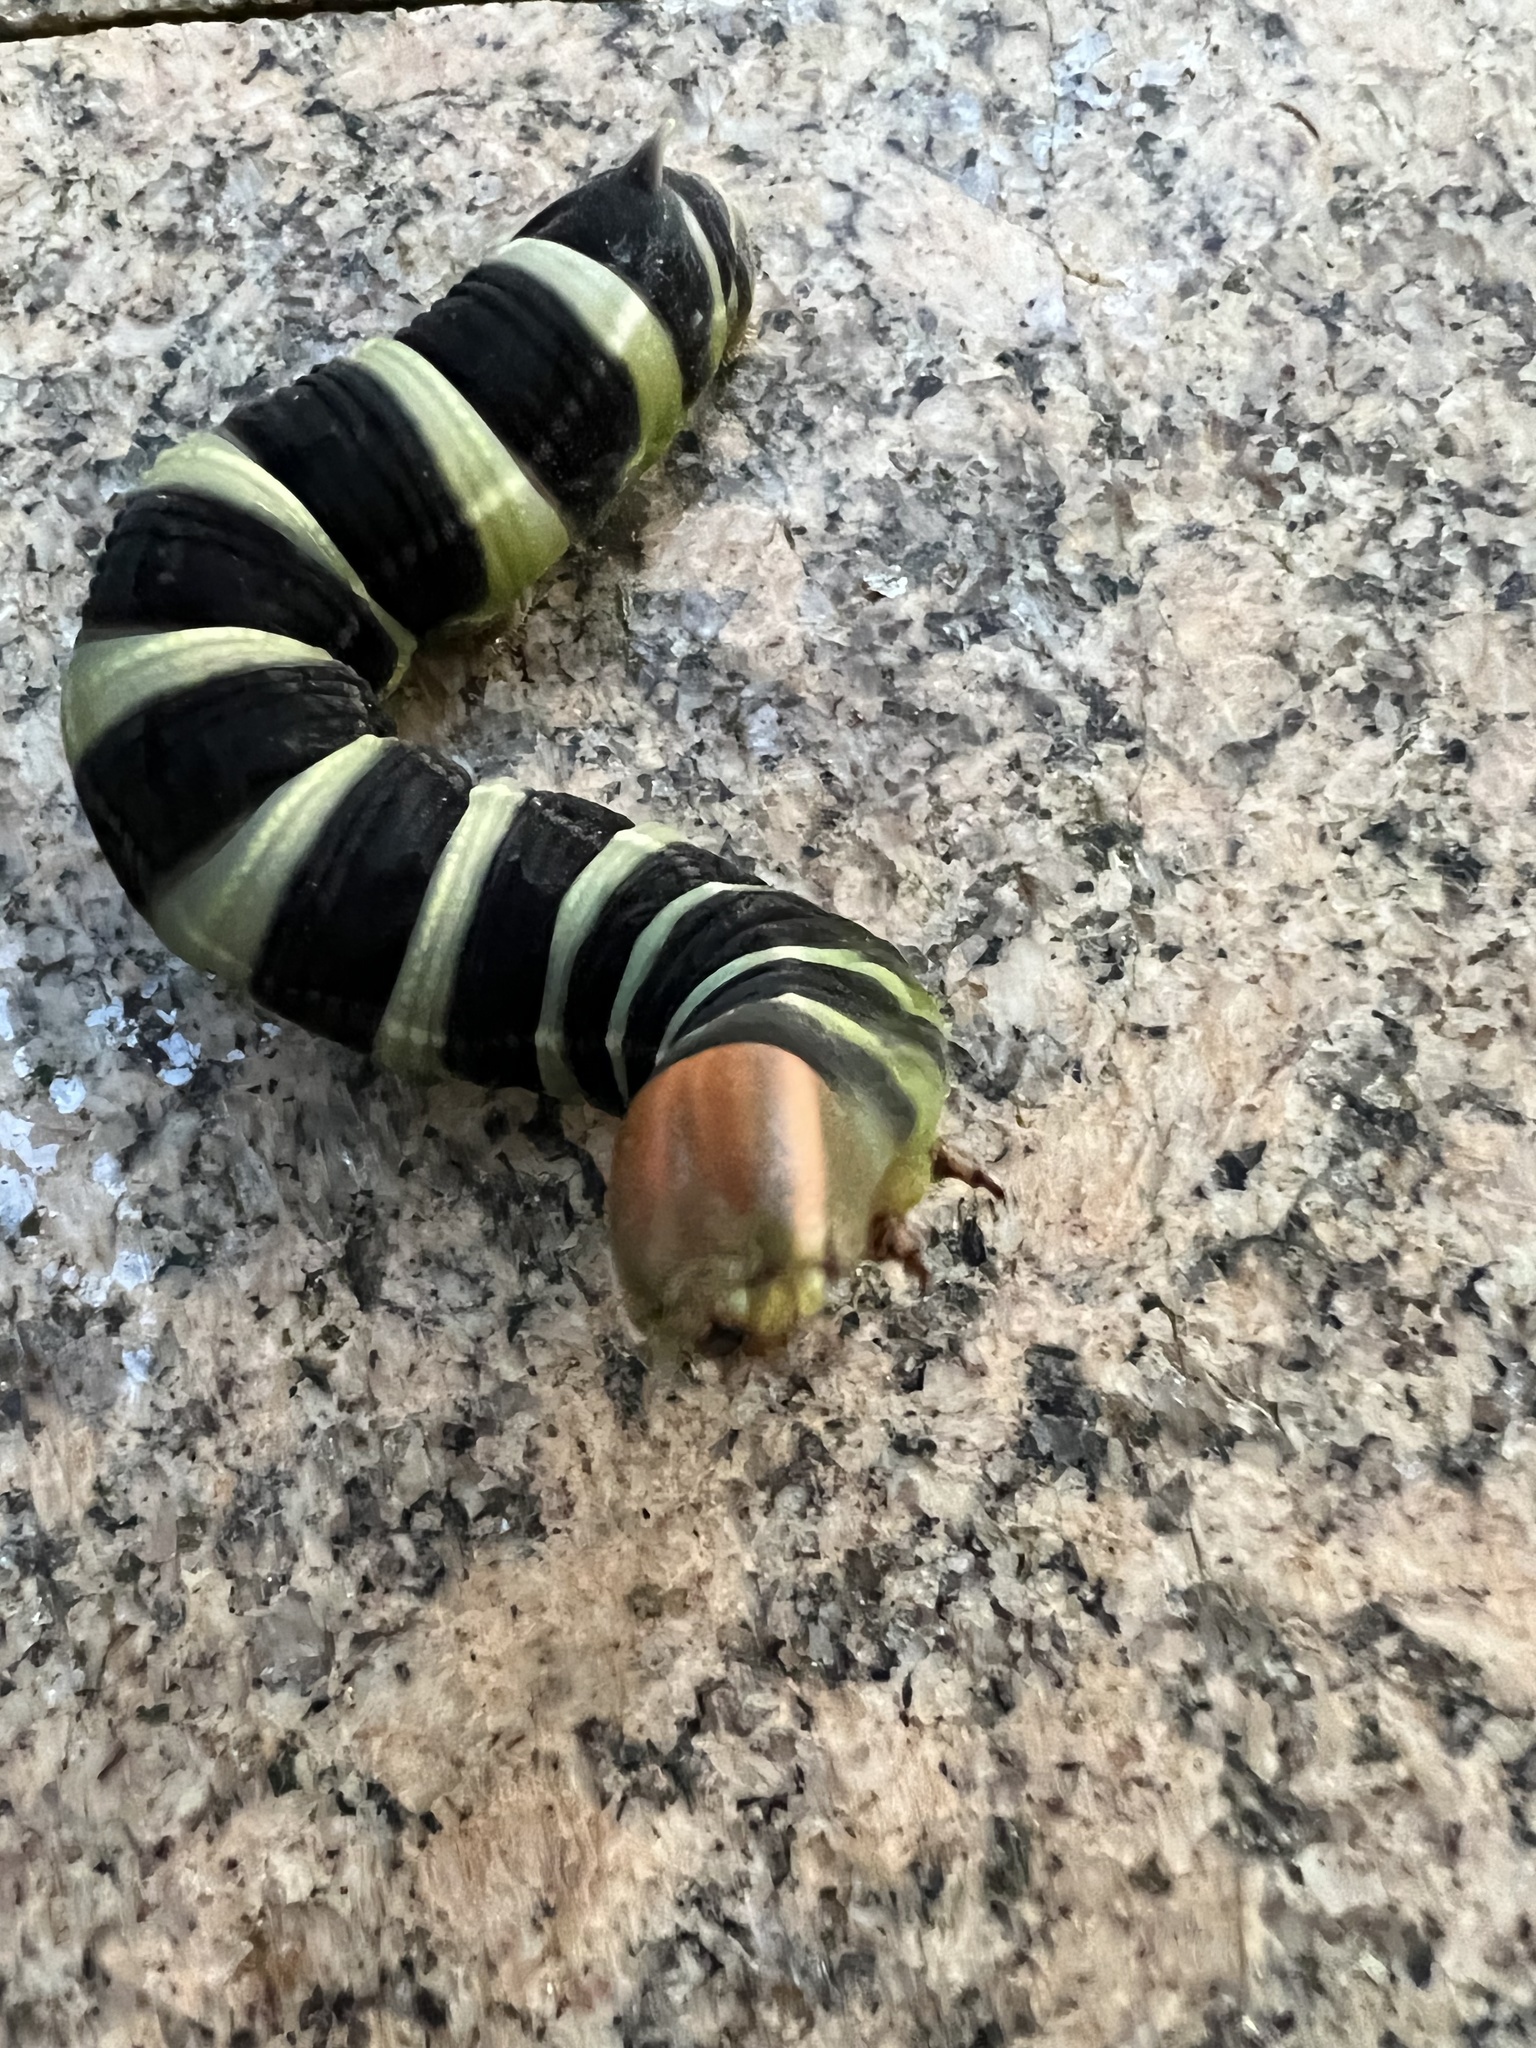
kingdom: Animalia
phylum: Arthropoda
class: Insecta
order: Lepidoptera
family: Sphingidae
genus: Pachylia
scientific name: Pachylia syces
